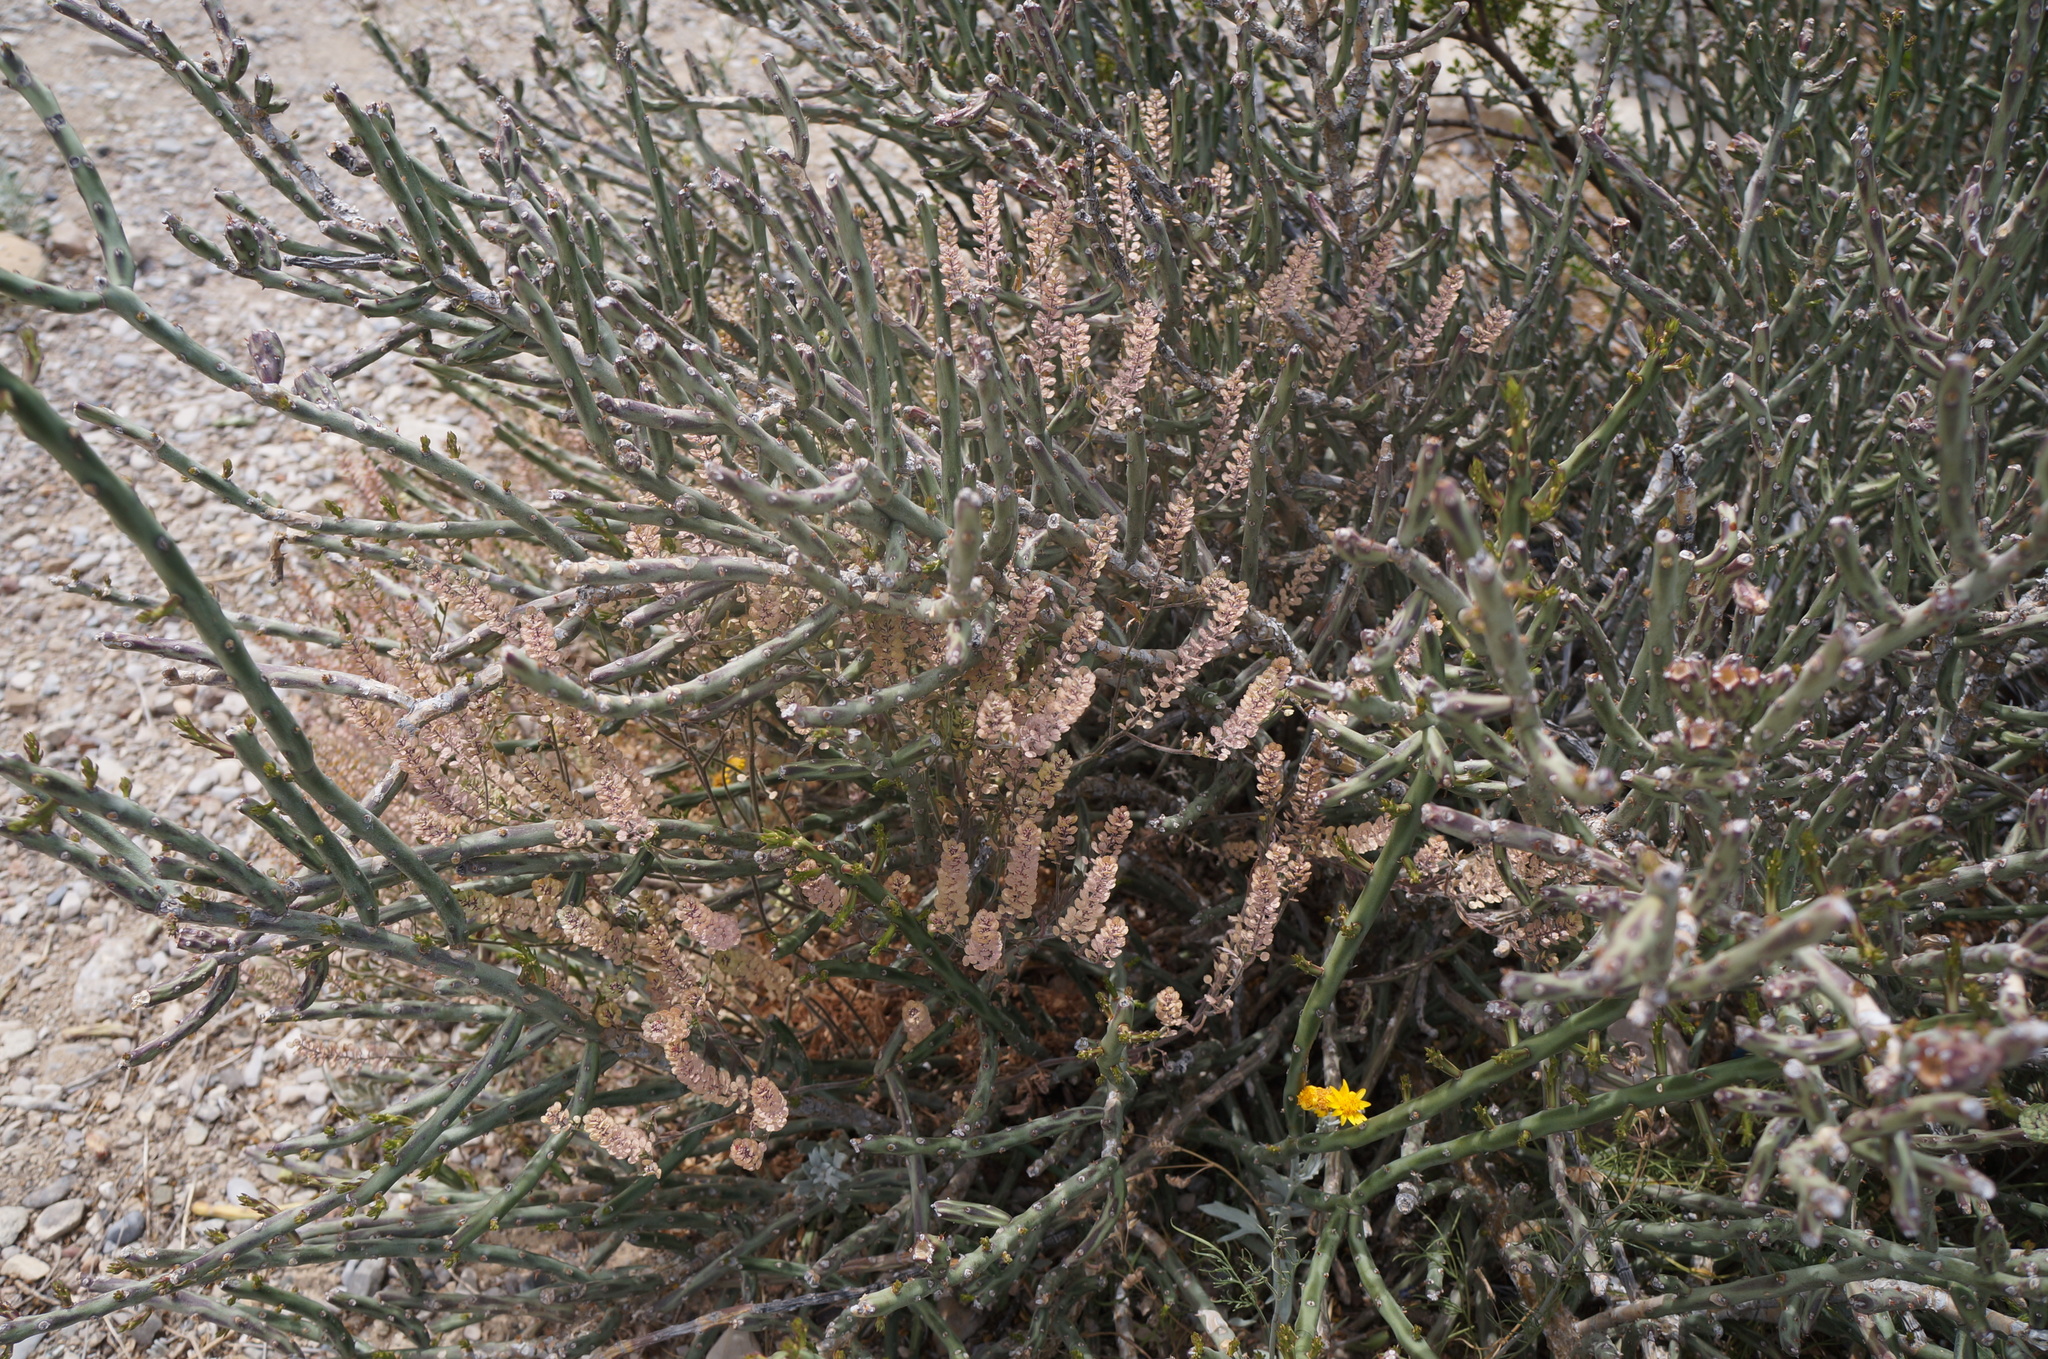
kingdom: Plantae
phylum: Tracheophyta
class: Magnoliopsida
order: Caryophyllales
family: Cactaceae
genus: Cylindropuntia
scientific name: Cylindropuntia leptocaulis
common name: Christmas cactus
